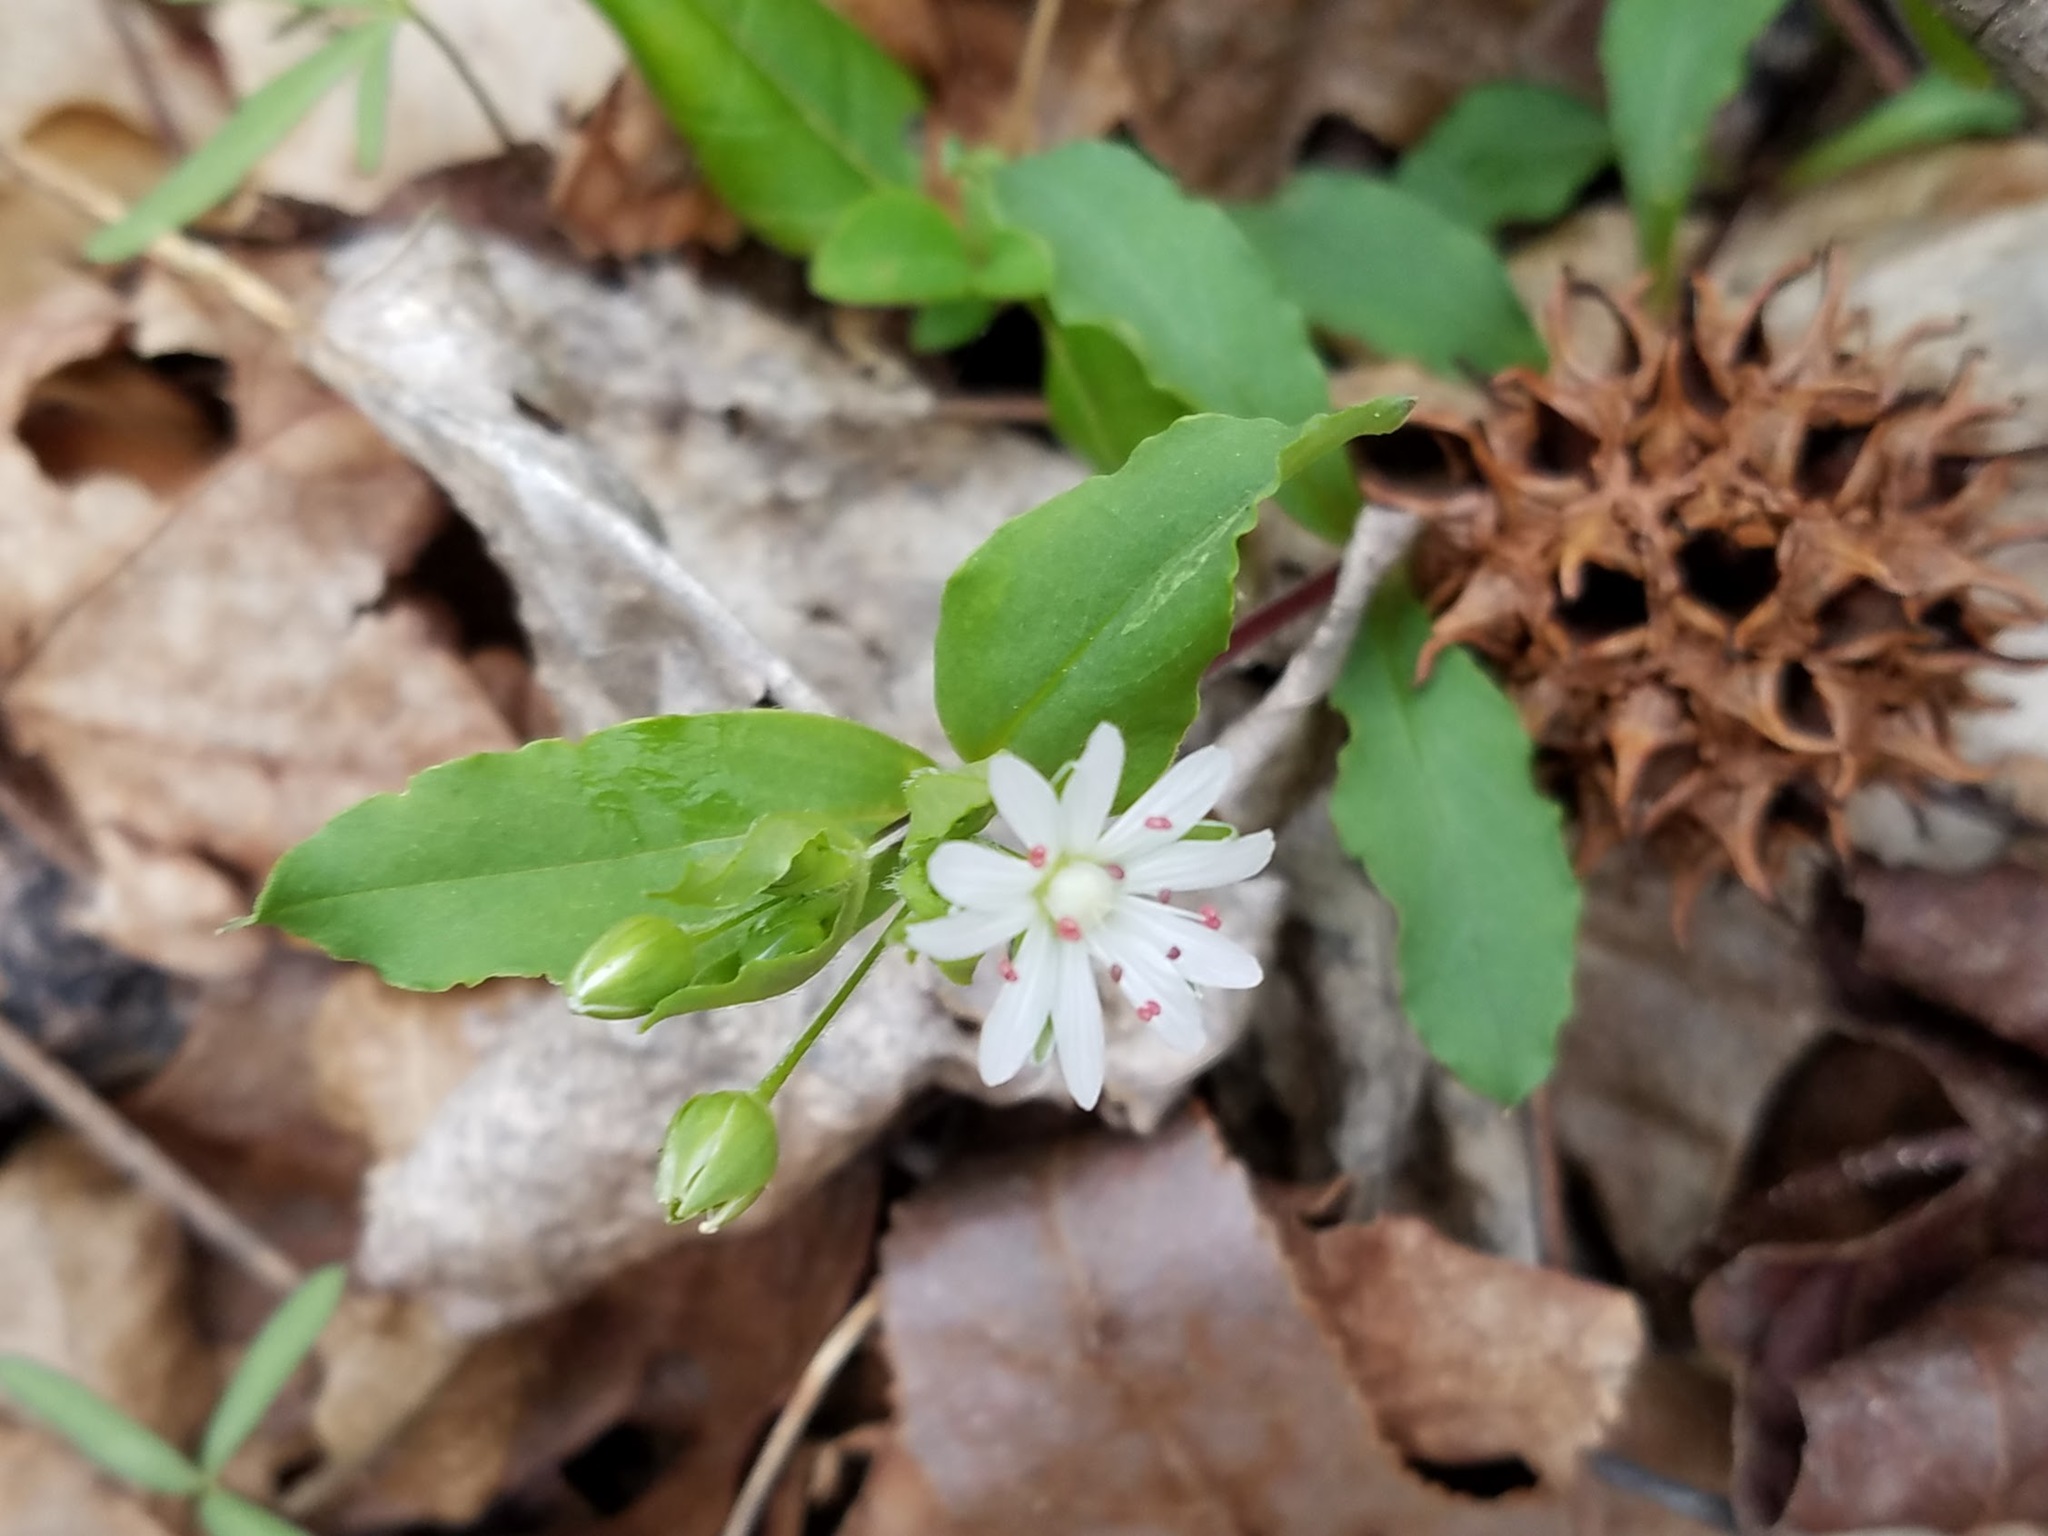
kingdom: Plantae
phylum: Tracheophyta
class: Magnoliopsida
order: Caryophyllales
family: Caryophyllaceae
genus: Stellaria
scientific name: Stellaria pubera
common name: Star chickweed
